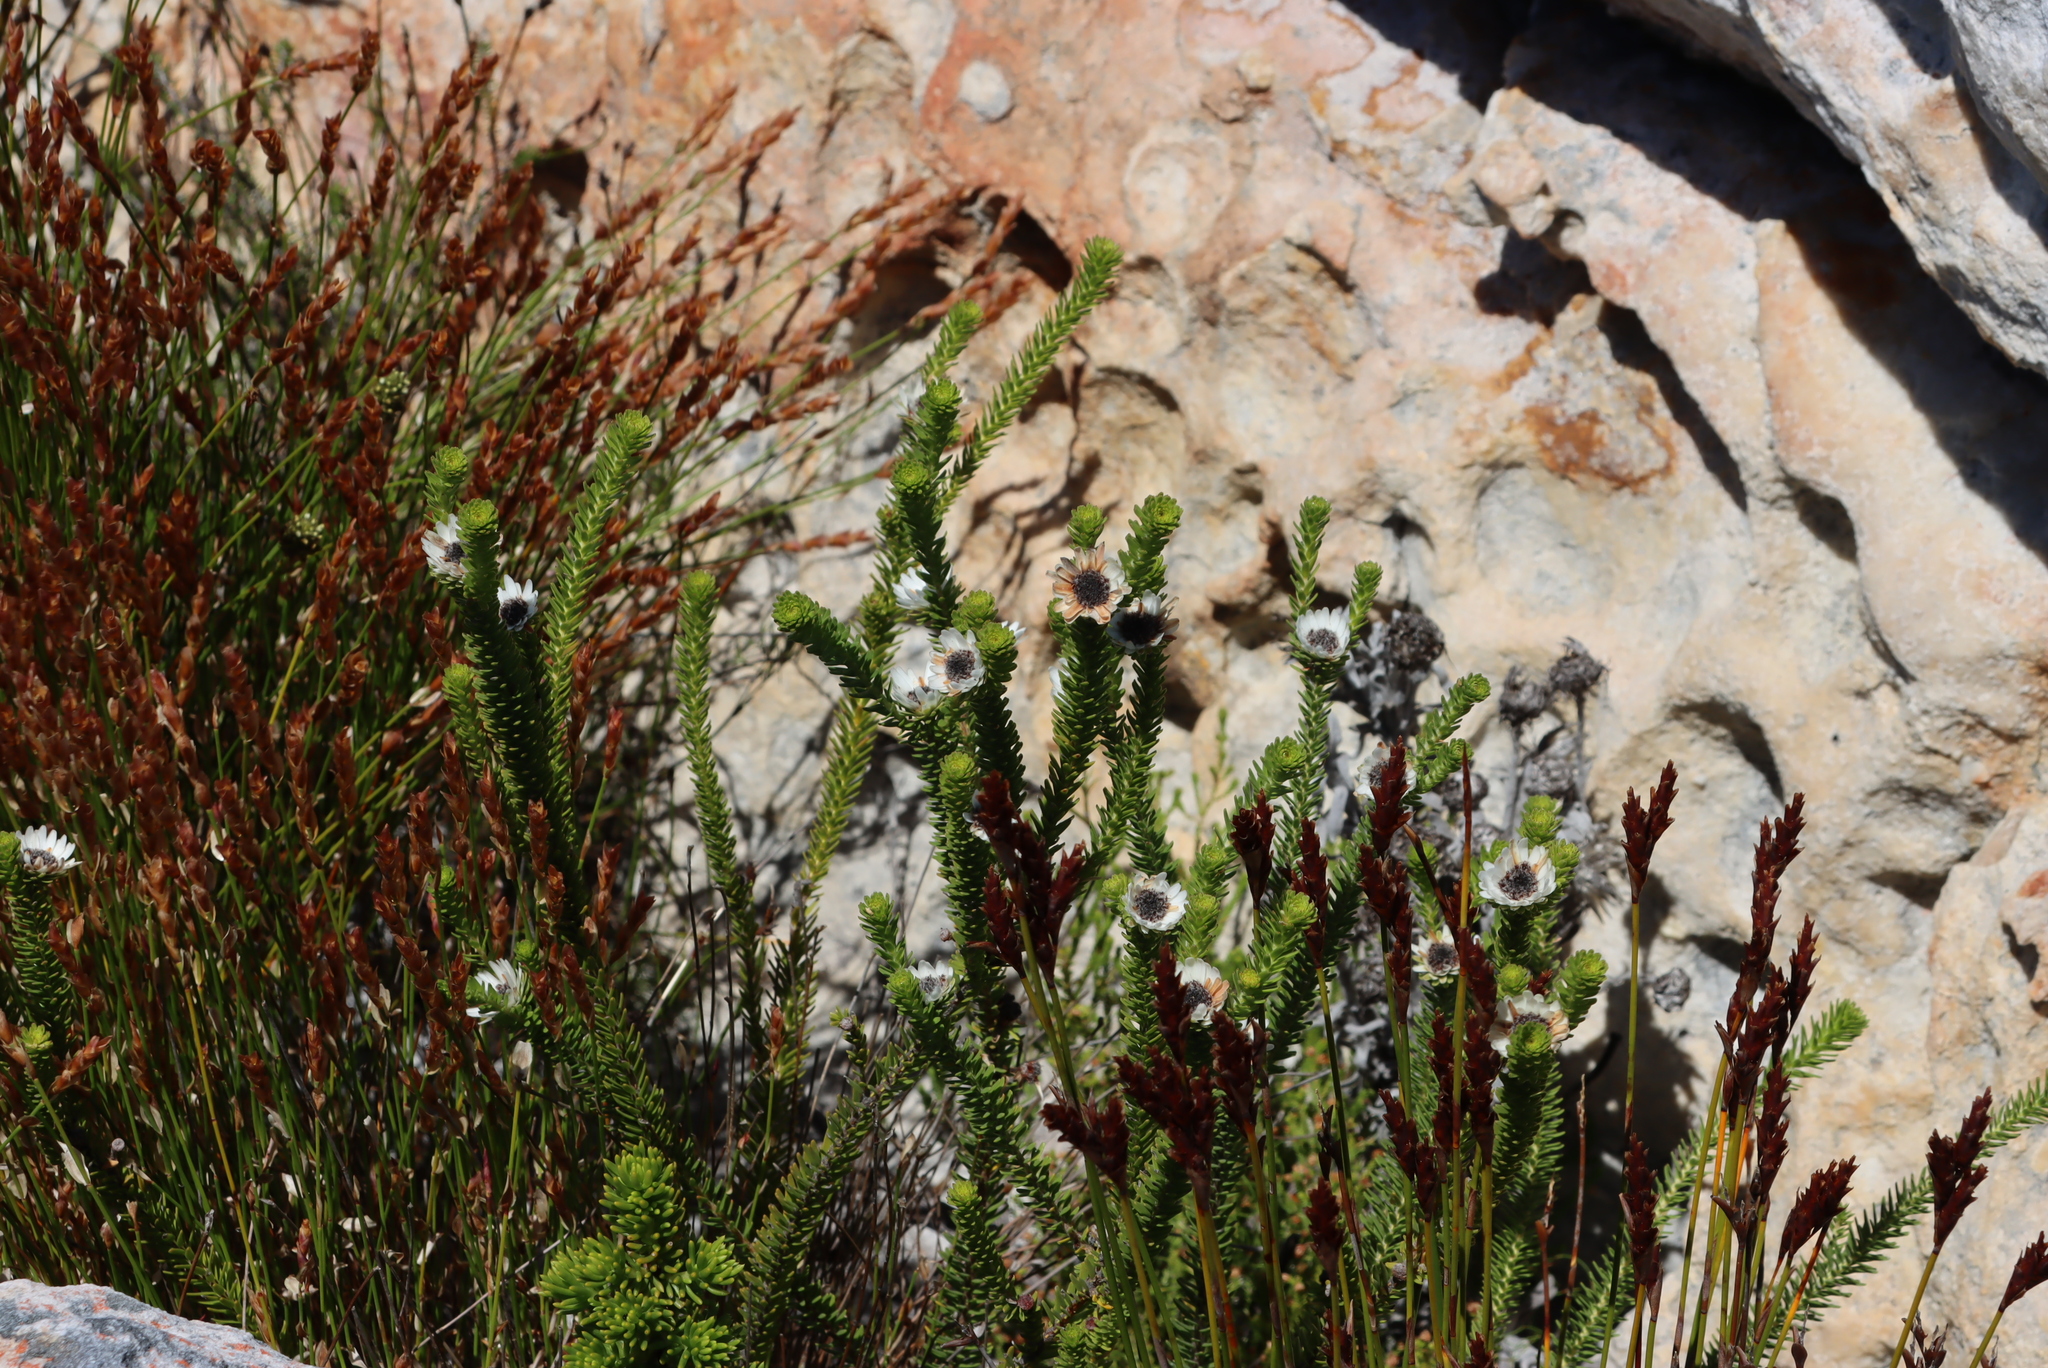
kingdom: Plantae
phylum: Tracheophyta
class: Magnoliopsida
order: Bruniales
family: Bruniaceae
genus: Staavia
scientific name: Staavia dodii
